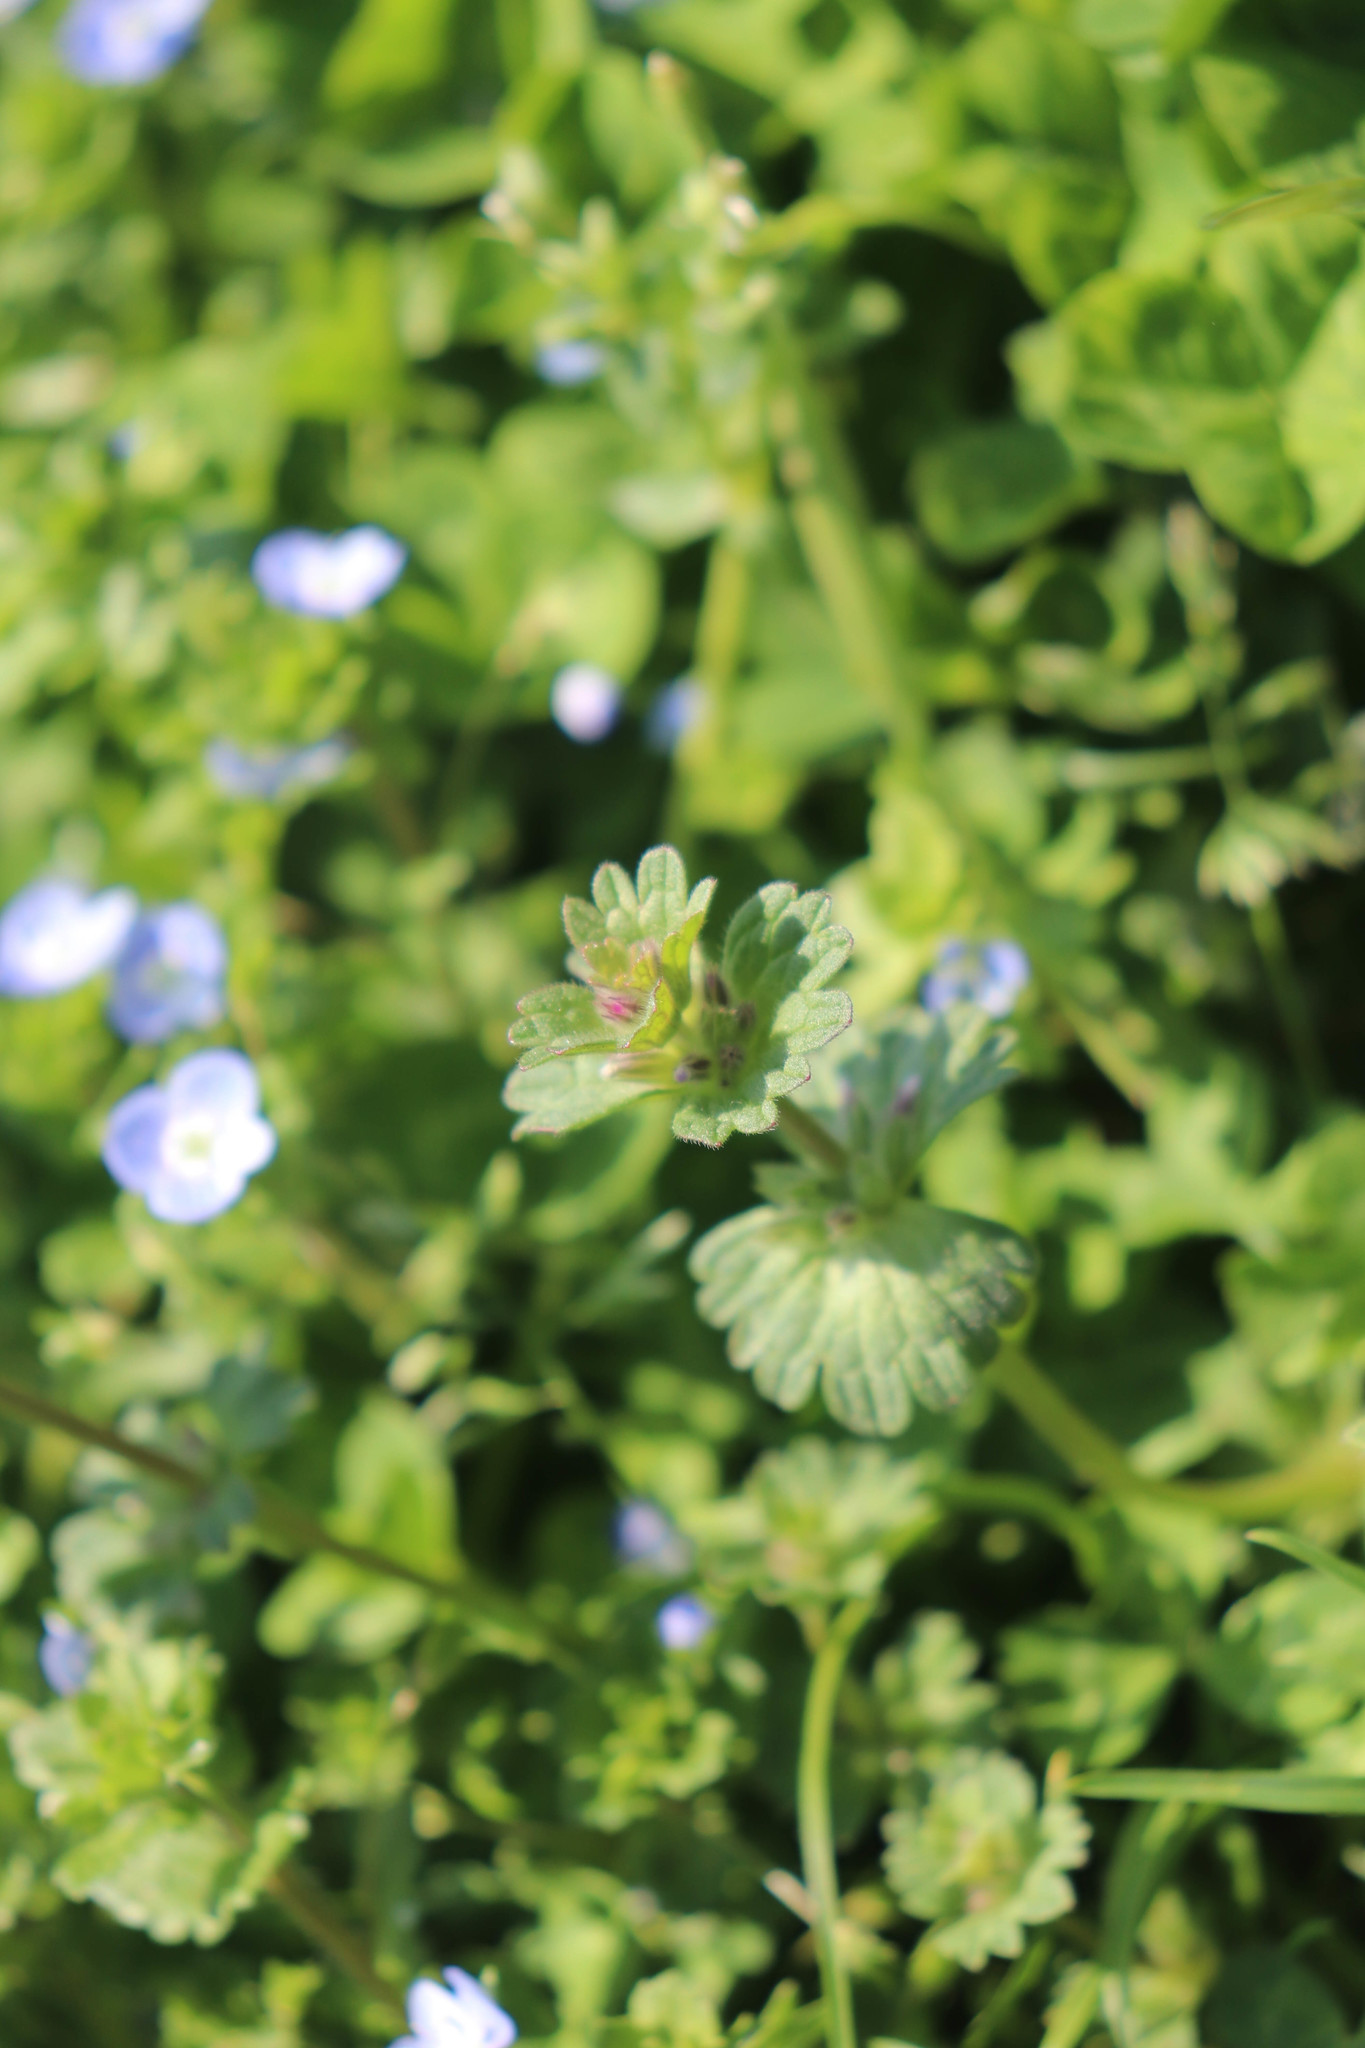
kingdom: Plantae
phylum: Tracheophyta
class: Magnoliopsida
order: Lamiales
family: Lamiaceae
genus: Lamium
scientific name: Lamium amplexicaule
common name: Henbit dead-nettle
